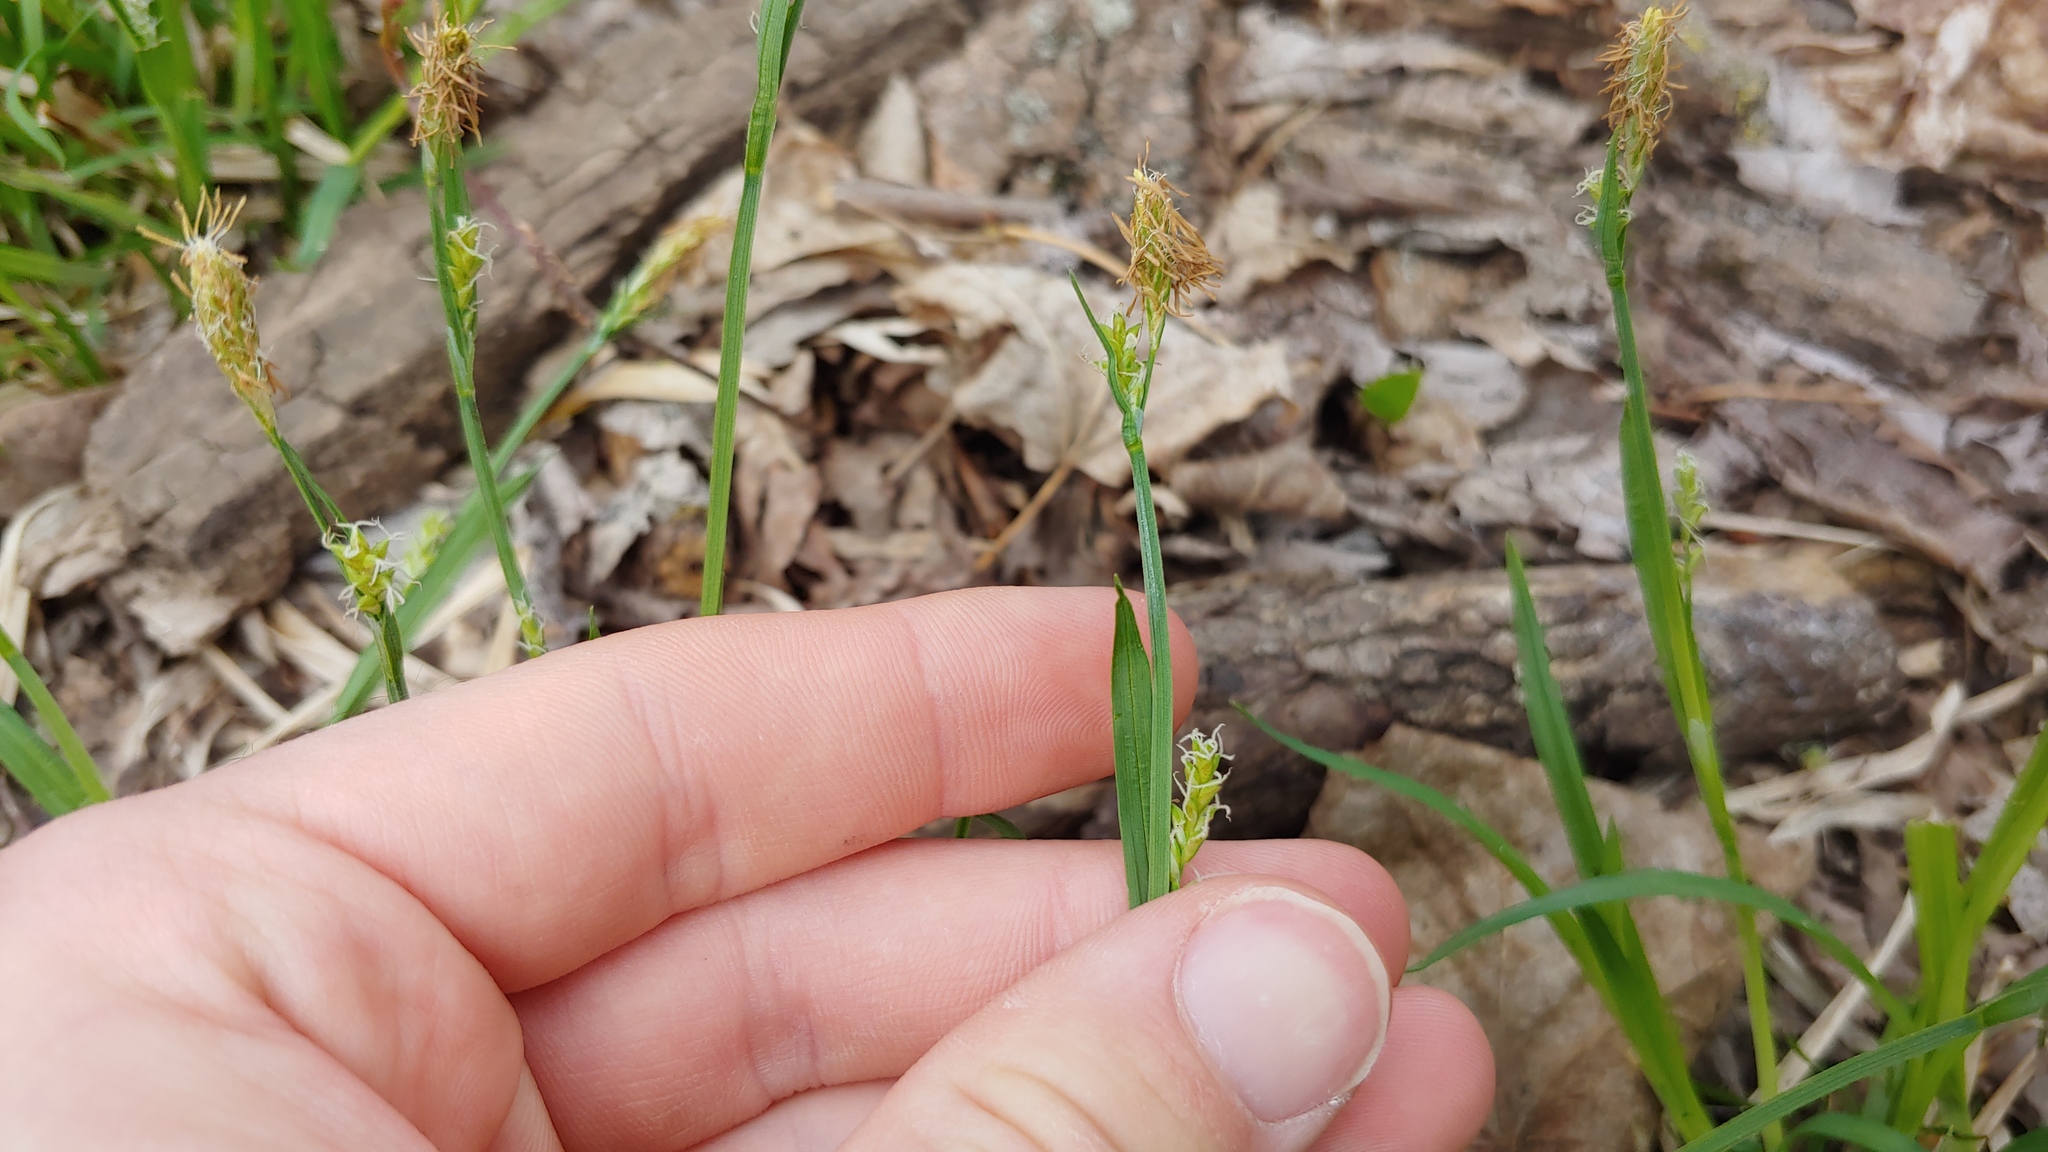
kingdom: Plantae
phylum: Tracheophyta
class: Liliopsida
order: Poales
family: Cyperaceae
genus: Carex
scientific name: Carex blanda
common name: Bland sedge
